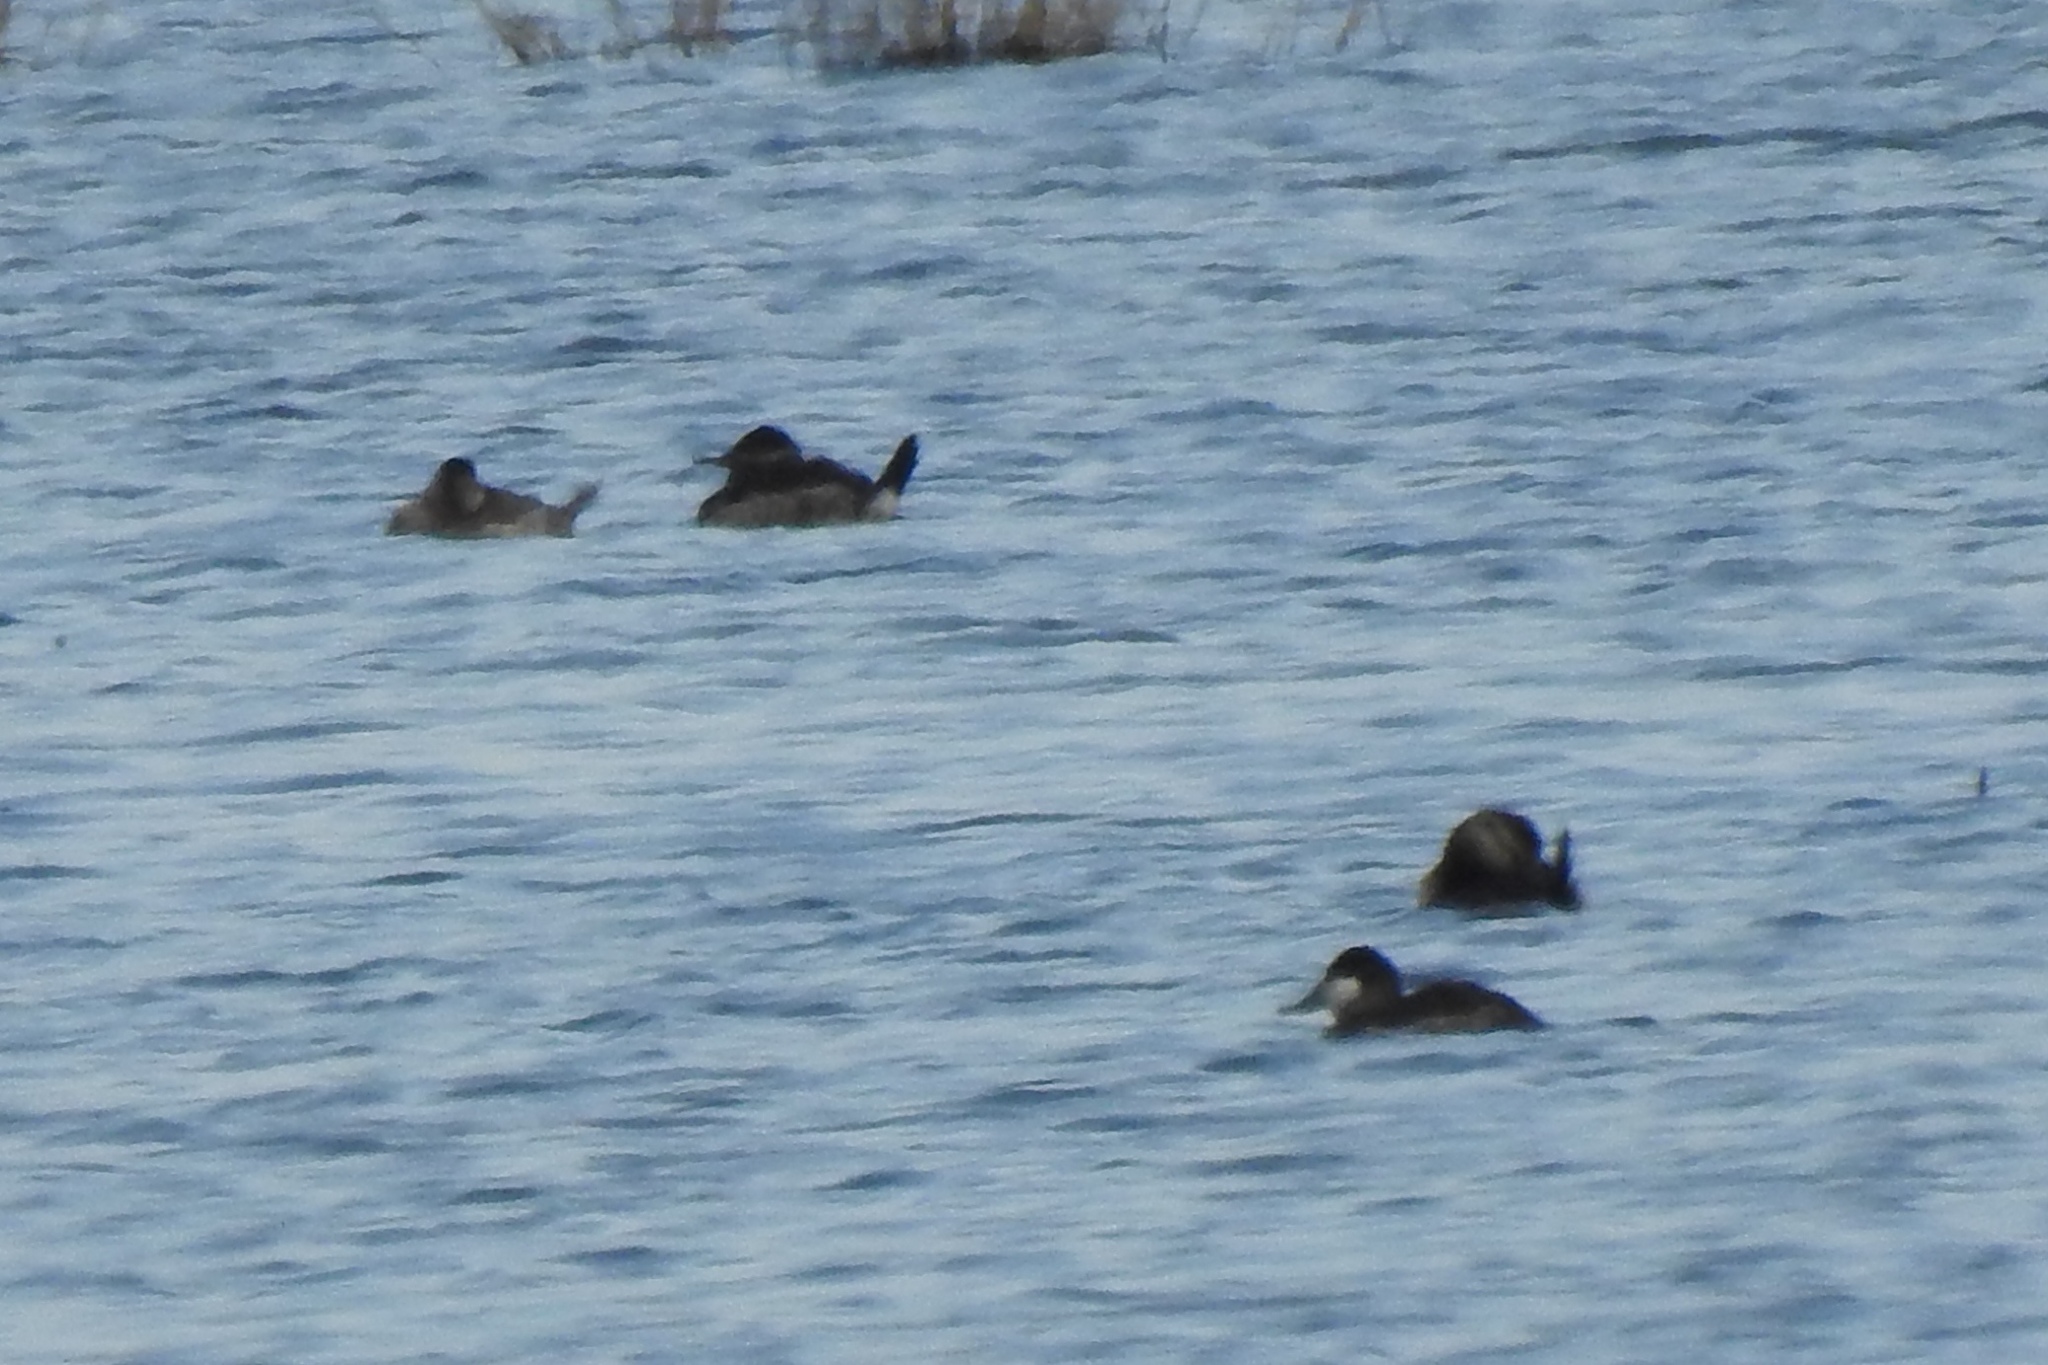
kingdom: Animalia
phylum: Chordata
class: Aves
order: Anseriformes
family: Anatidae
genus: Oxyura
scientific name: Oxyura jamaicensis
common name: Ruddy duck
